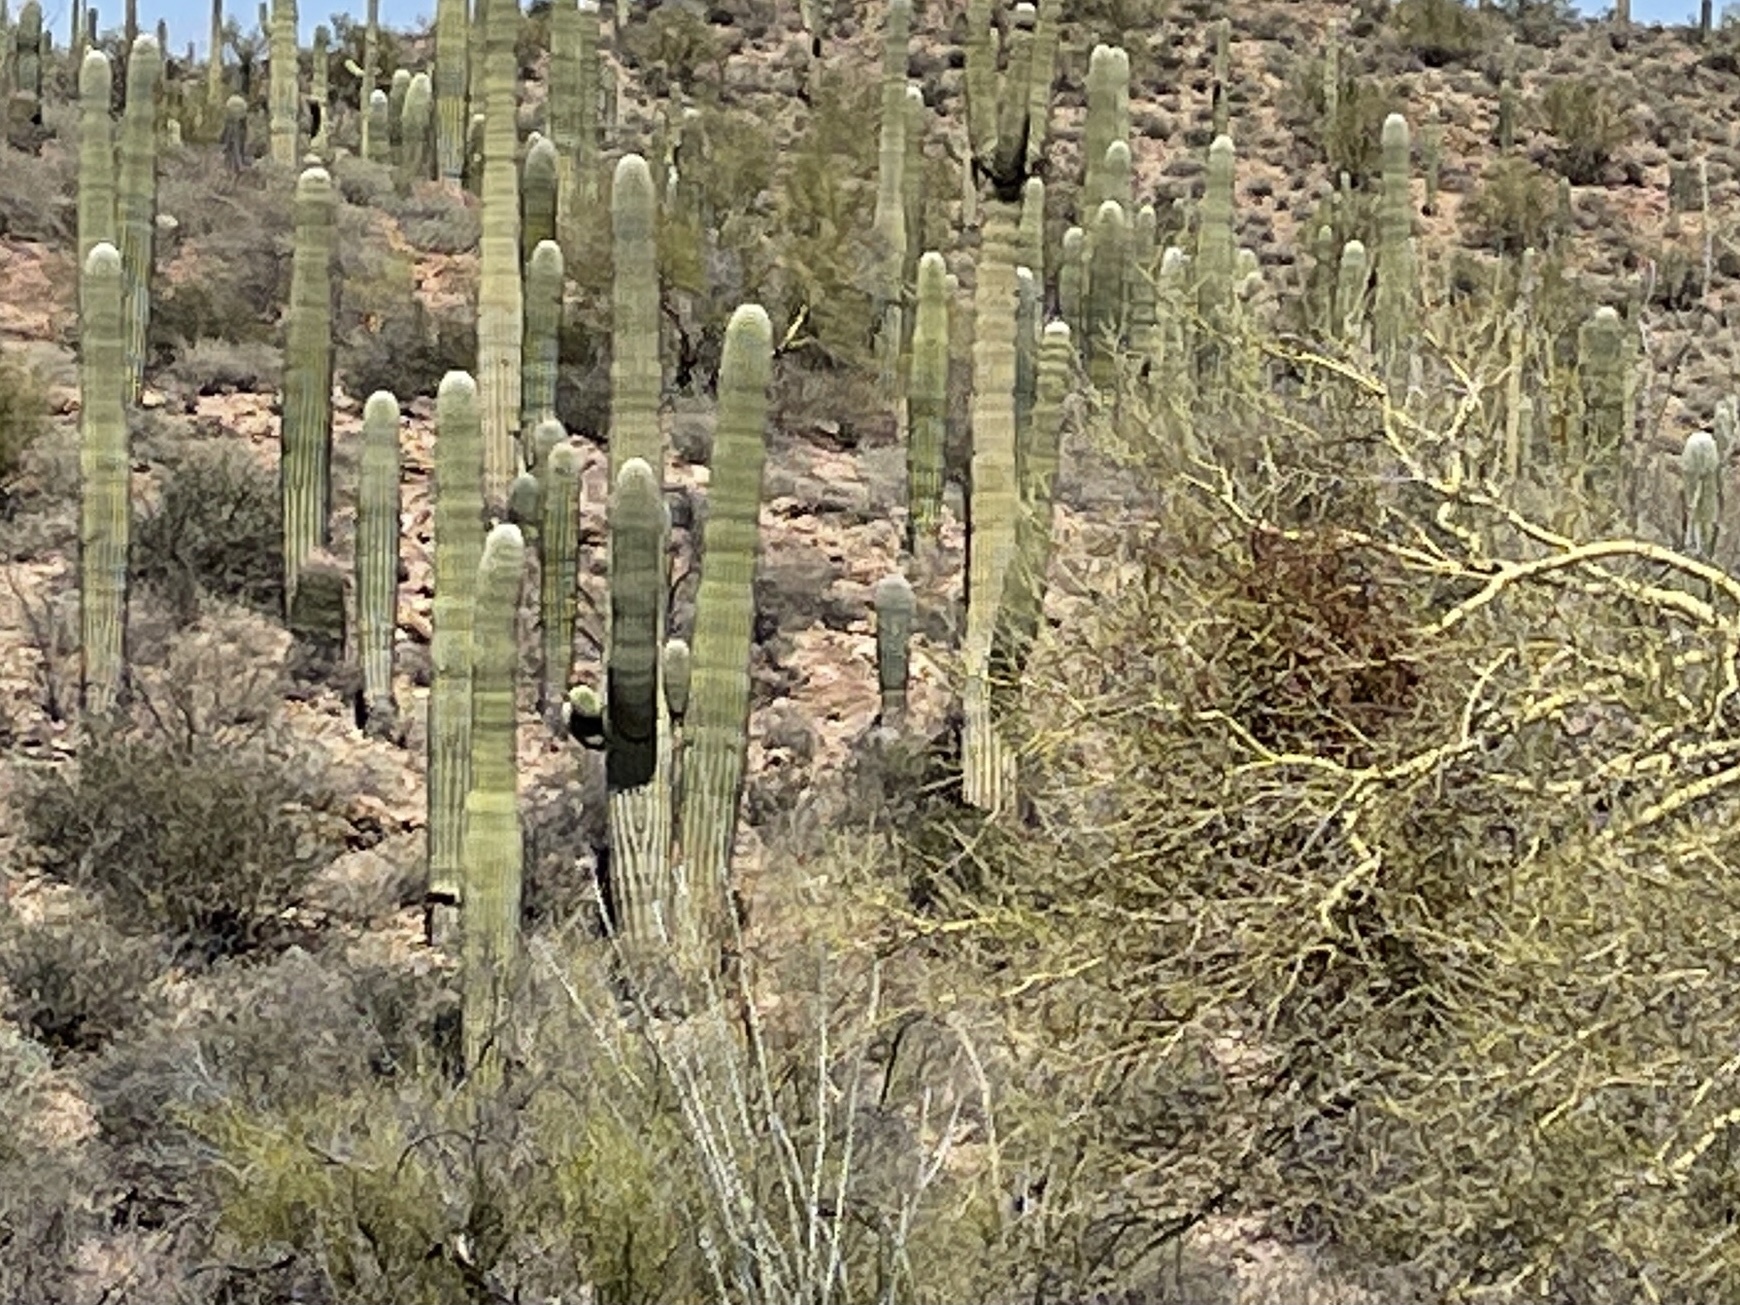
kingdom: Plantae
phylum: Tracheophyta
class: Magnoliopsida
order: Caryophyllales
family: Cactaceae
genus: Carnegiea
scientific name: Carnegiea gigantea
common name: Saguaro
